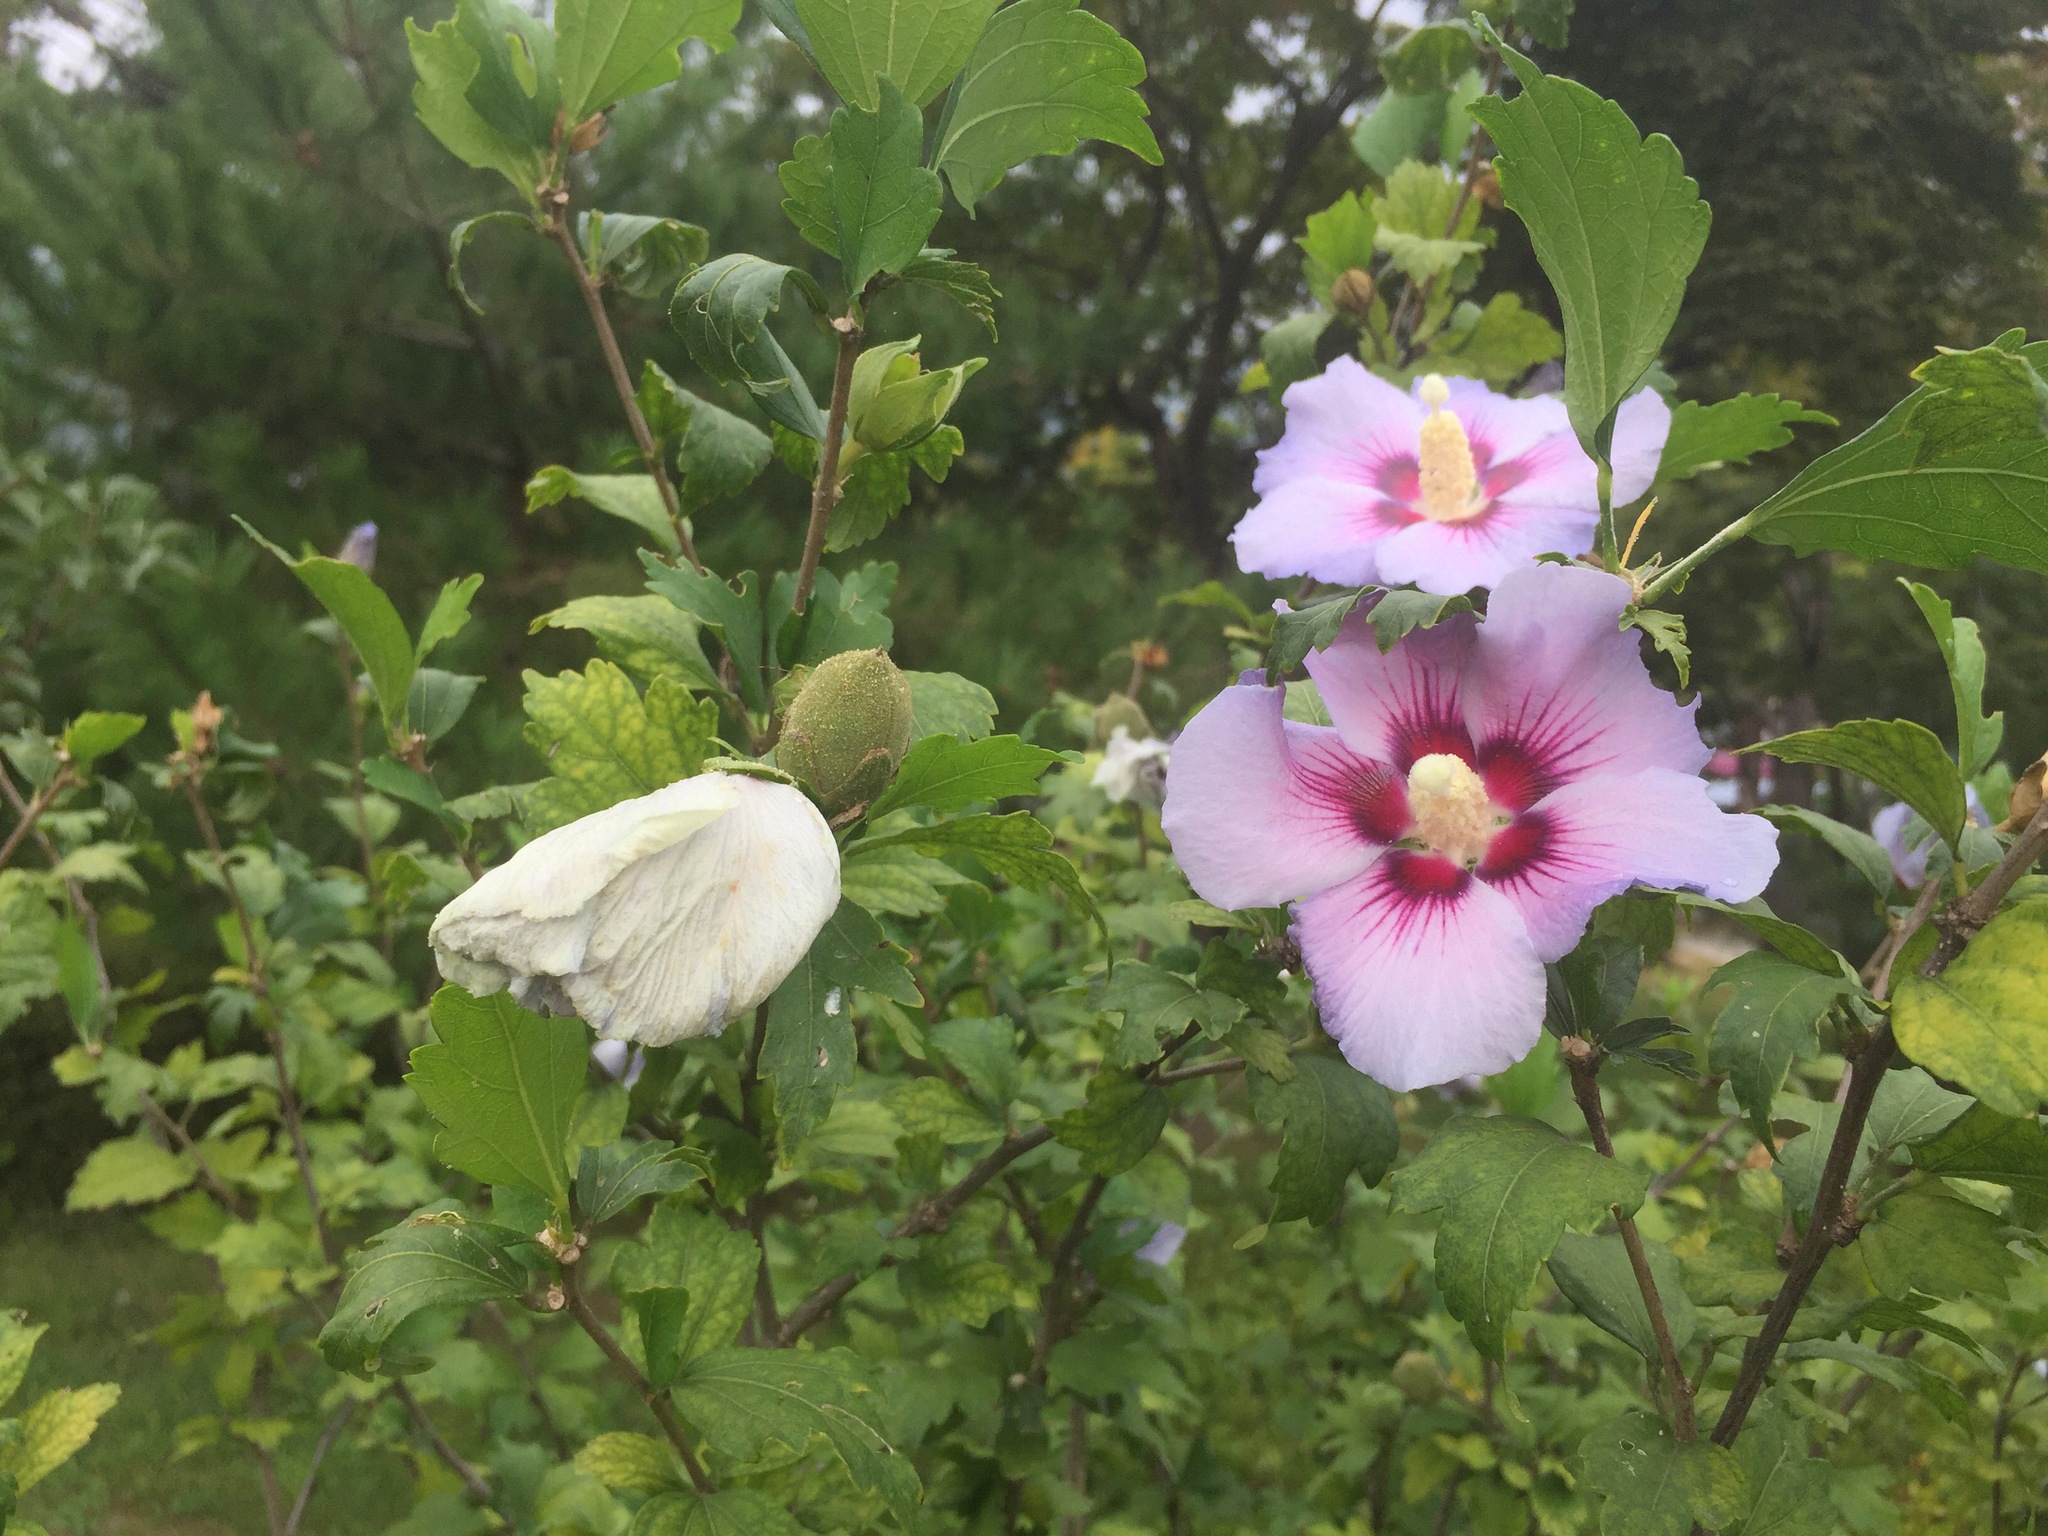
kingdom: Plantae
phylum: Tracheophyta
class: Magnoliopsida
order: Malvales
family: Malvaceae
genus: Hibiscus
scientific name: Hibiscus syriacus
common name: Syrian ketmia
